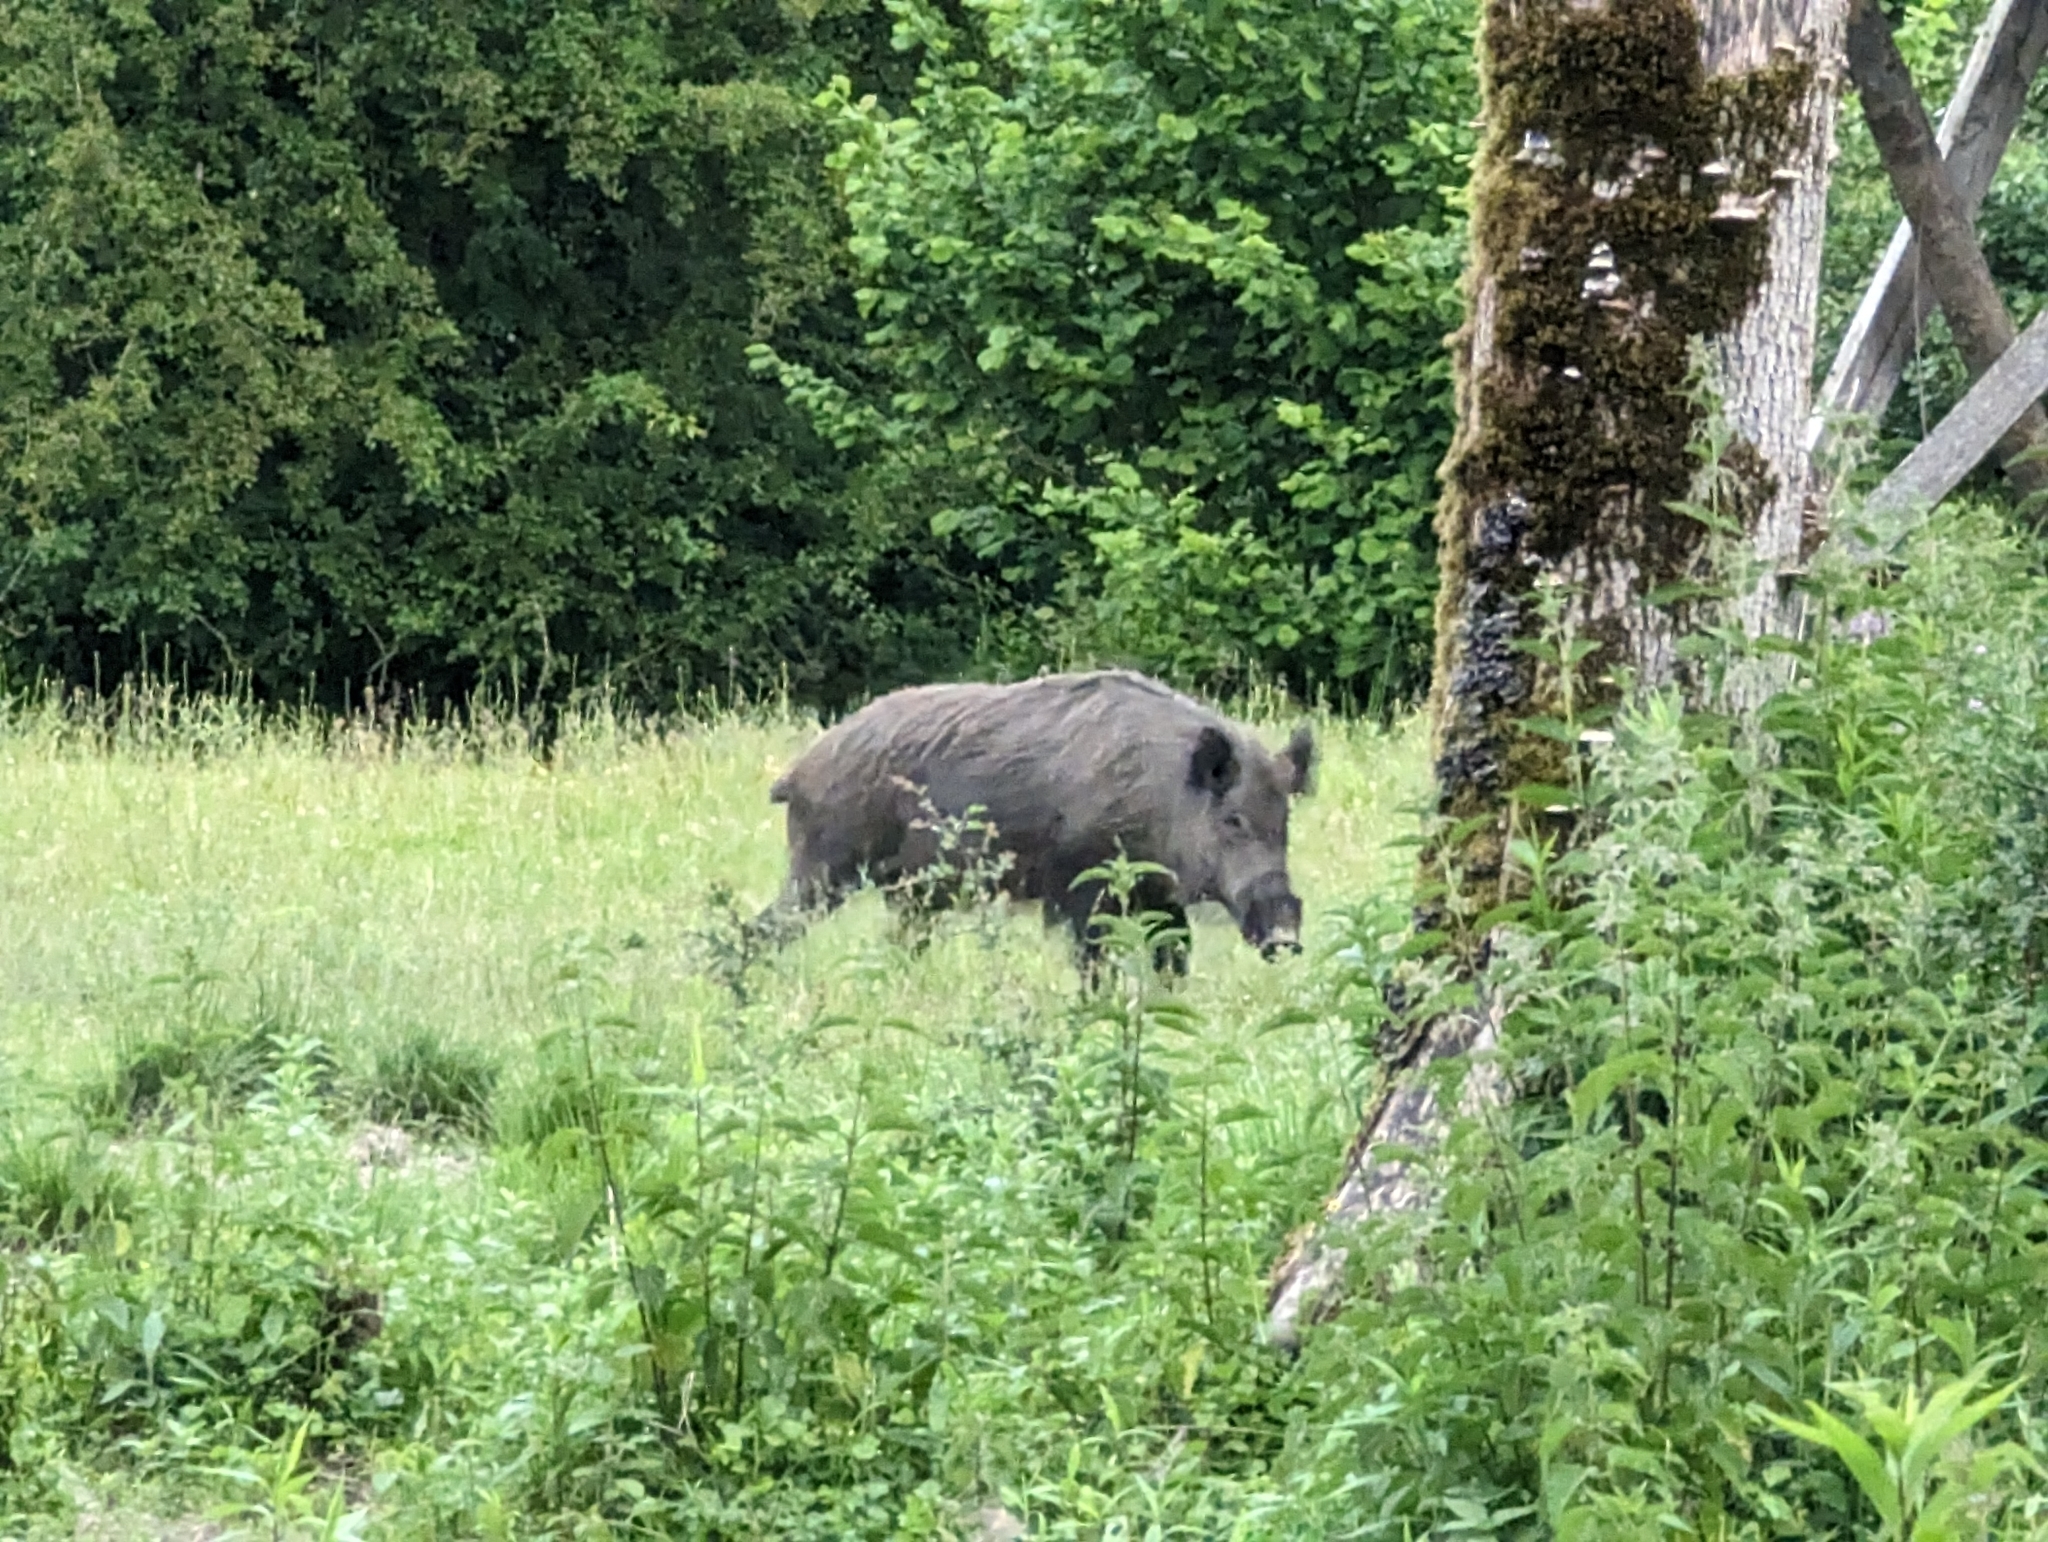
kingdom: Animalia
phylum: Chordata
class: Mammalia
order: Artiodactyla
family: Suidae
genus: Sus
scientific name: Sus scrofa
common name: Wild boar
